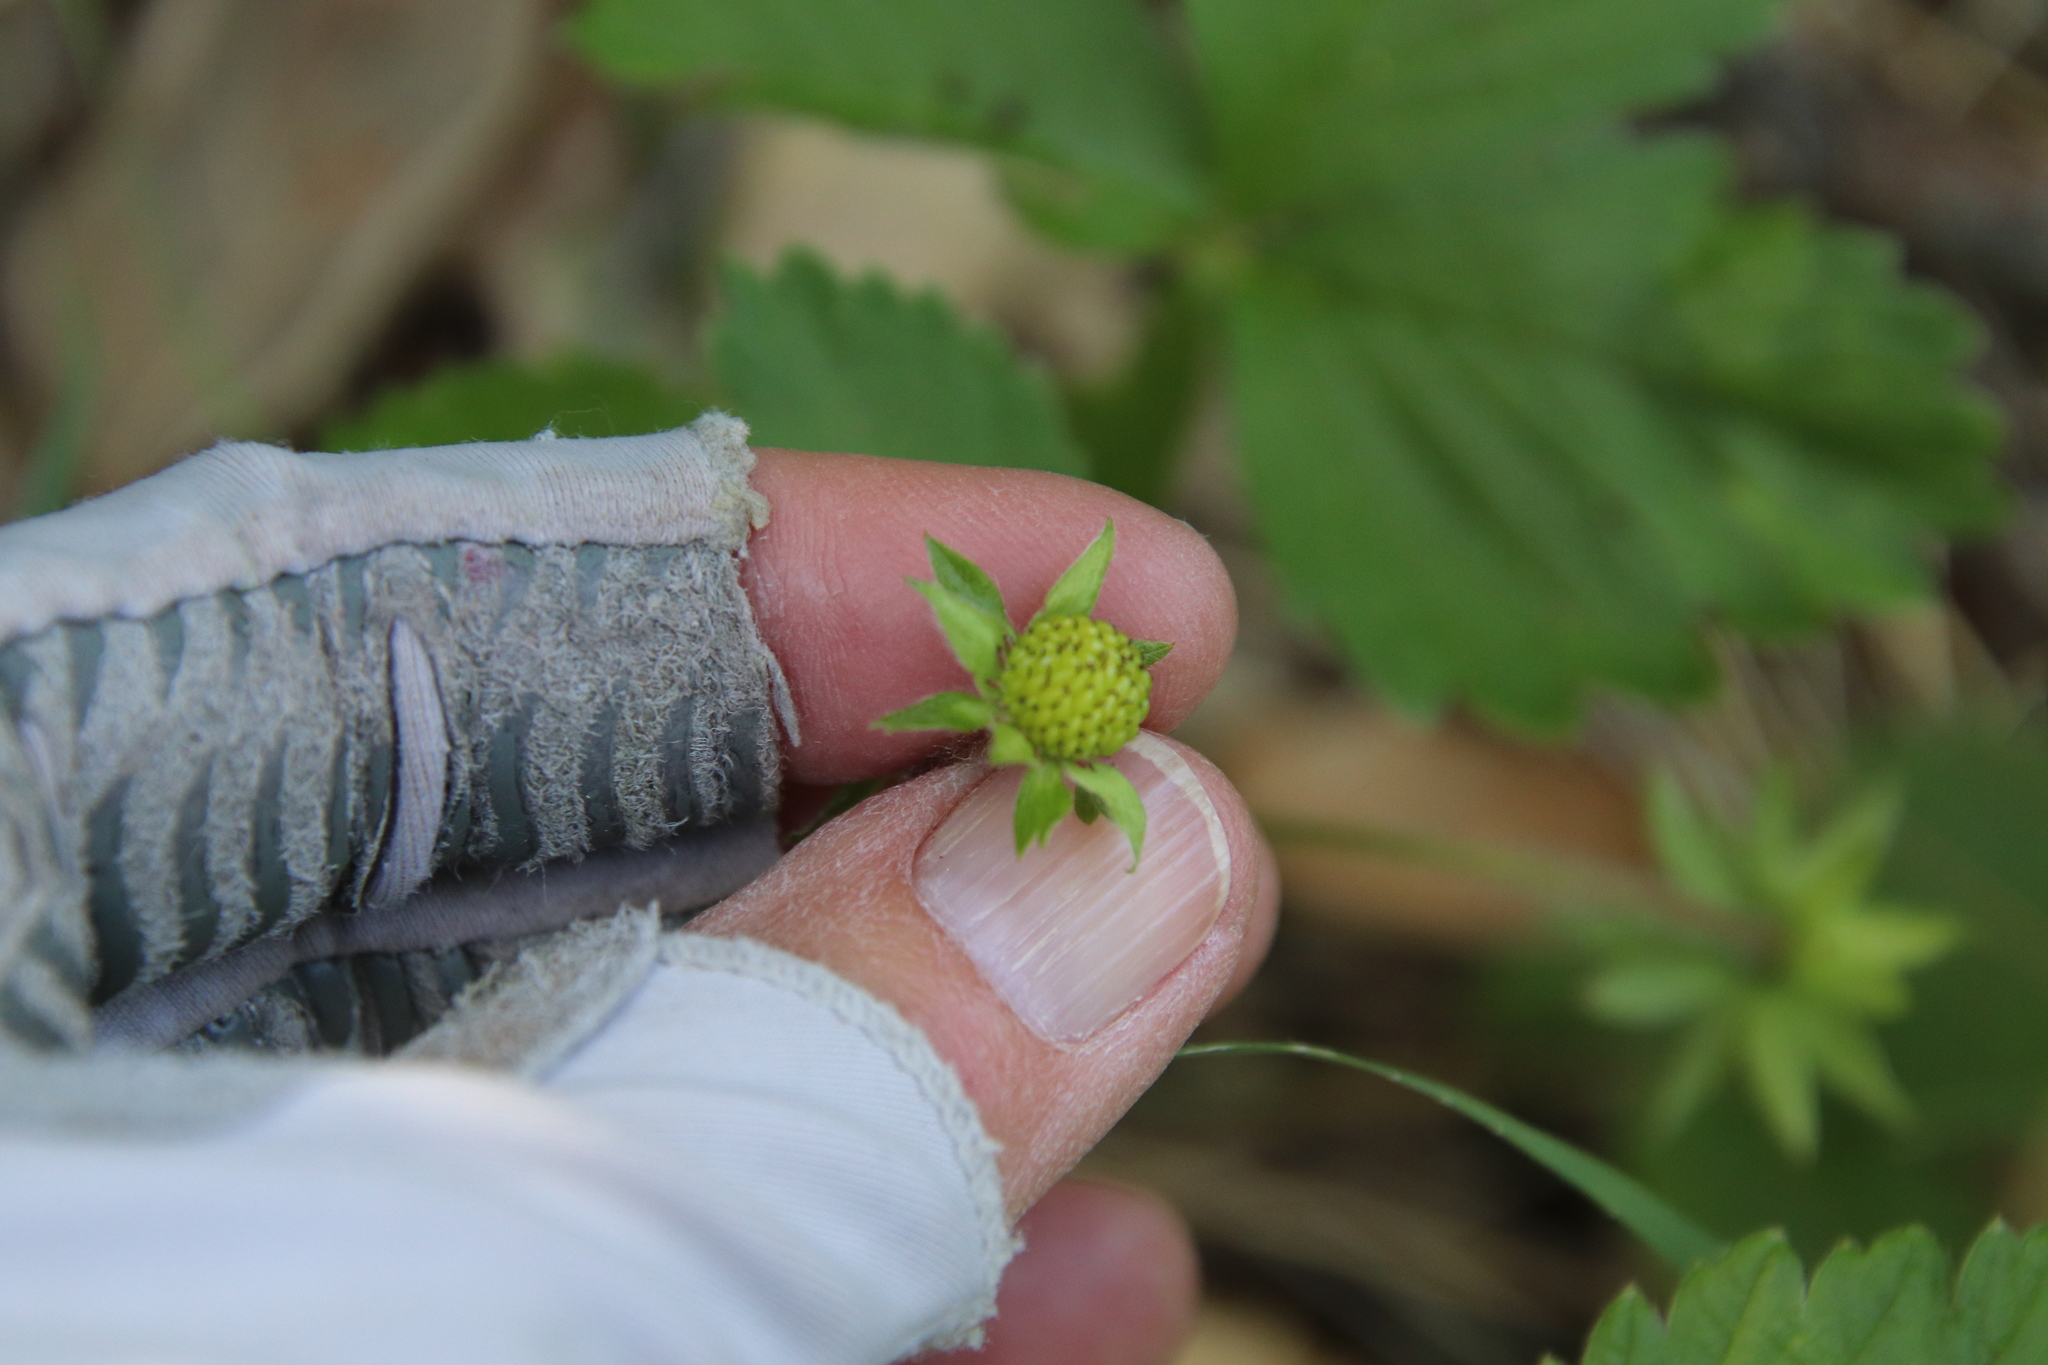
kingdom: Plantae
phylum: Tracheophyta
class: Magnoliopsida
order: Rosales
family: Rosaceae
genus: Fragaria
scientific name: Fragaria vesca
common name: Wild strawberry
